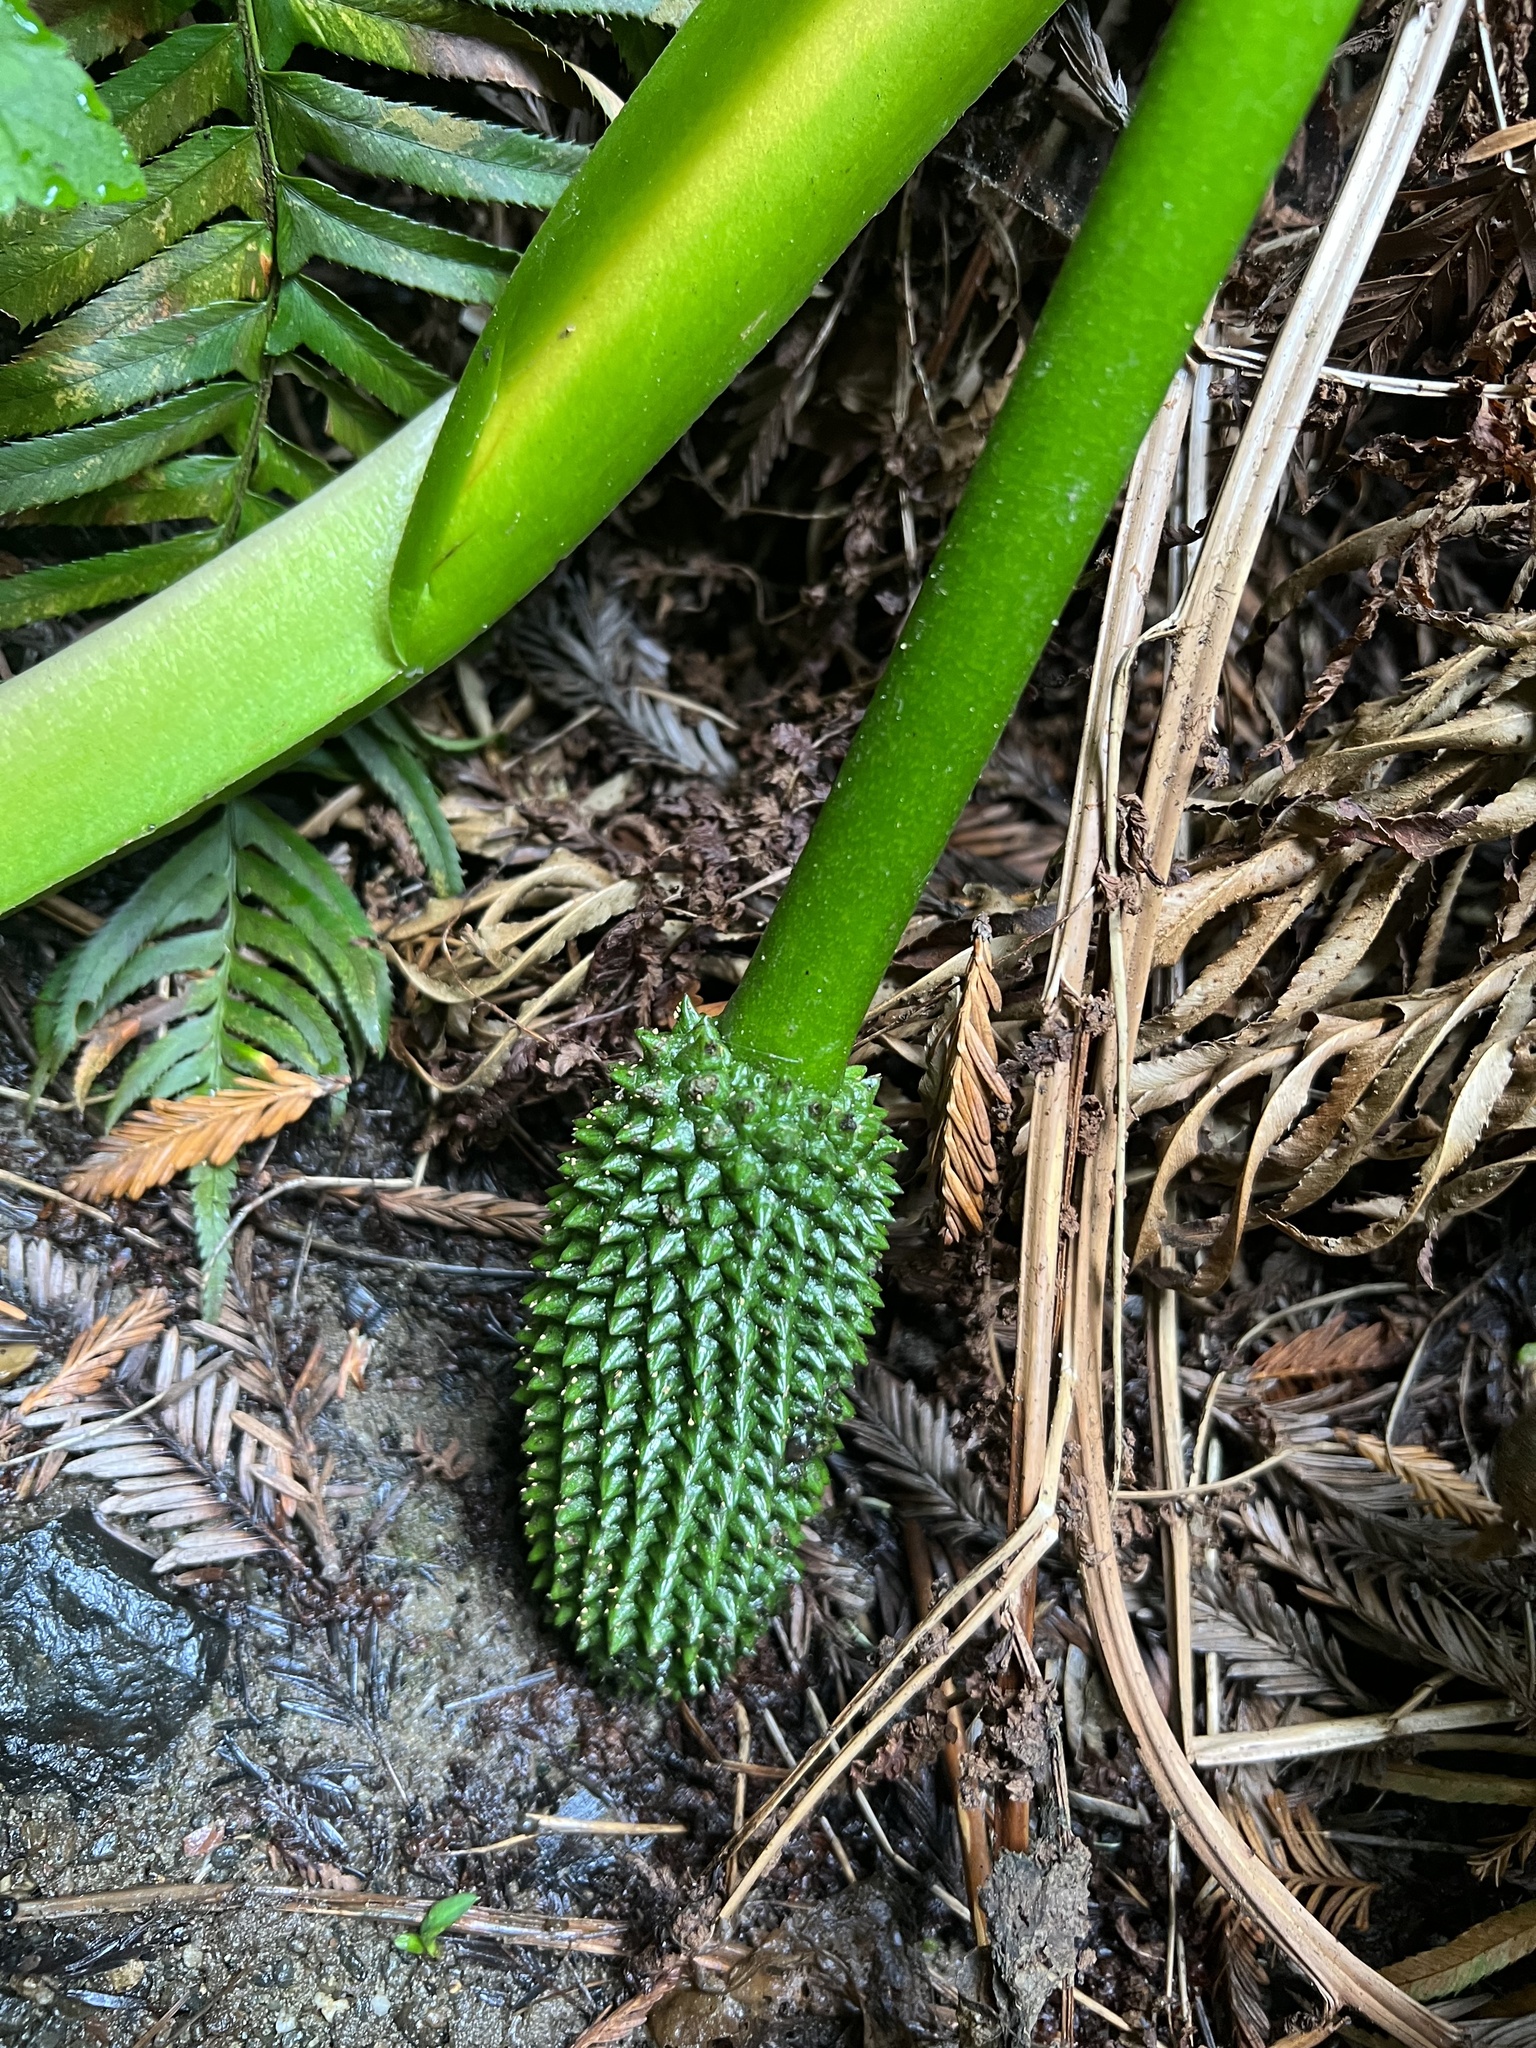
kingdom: Plantae
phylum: Tracheophyta
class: Liliopsida
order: Alismatales
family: Araceae
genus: Lysichiton
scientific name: Lysichiton americanus
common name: American skunk cabbage
